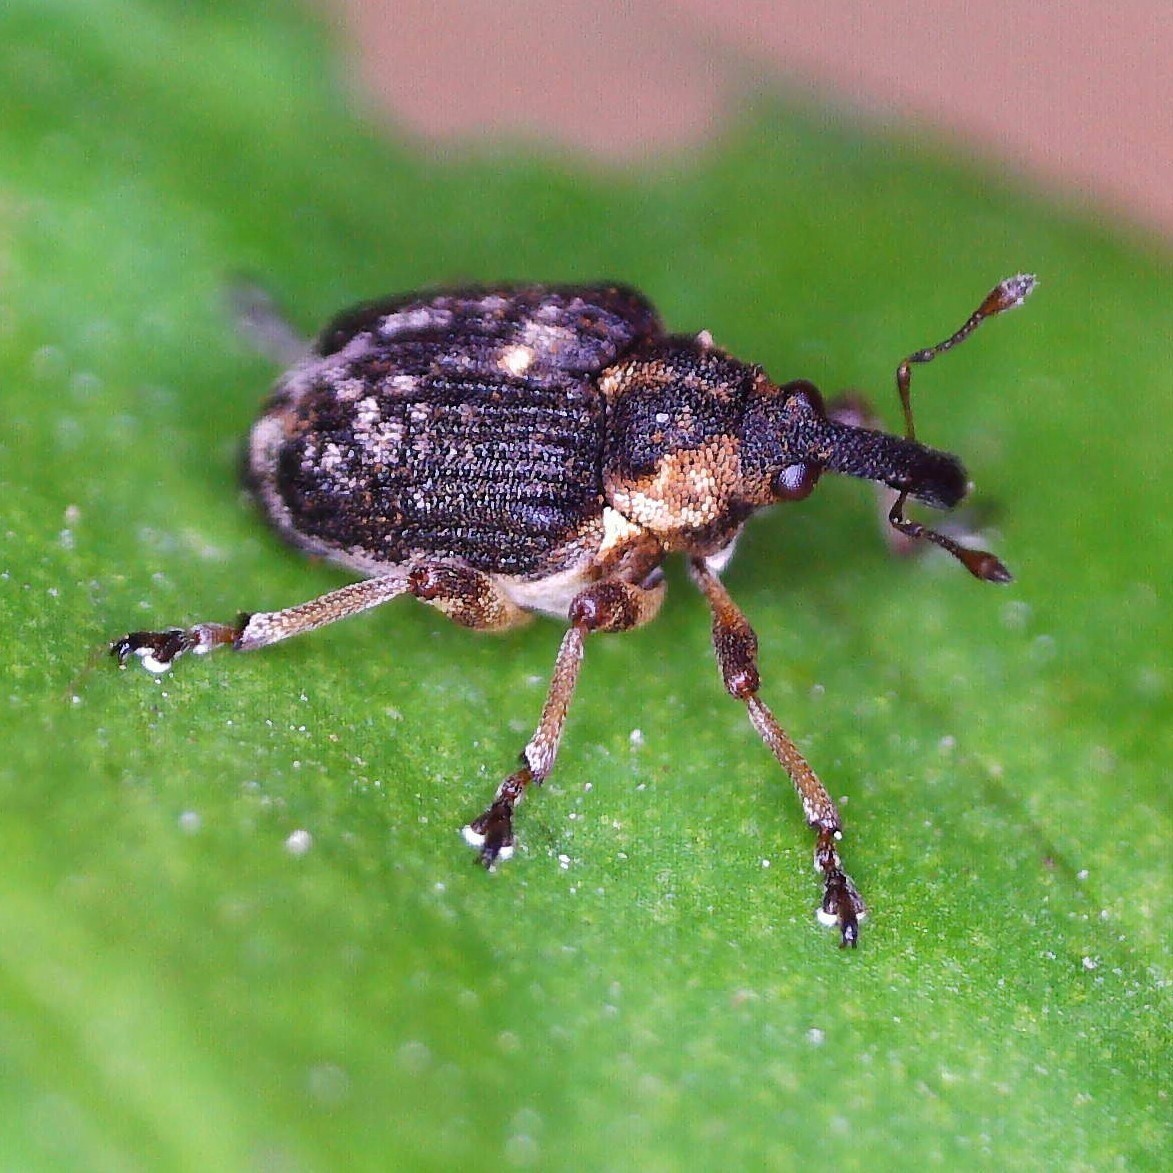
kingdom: Animalia
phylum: Arthropoda
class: Insecta
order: Coleoptera
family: Curculionidae
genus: Phytobius
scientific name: Phytobius waltoni
